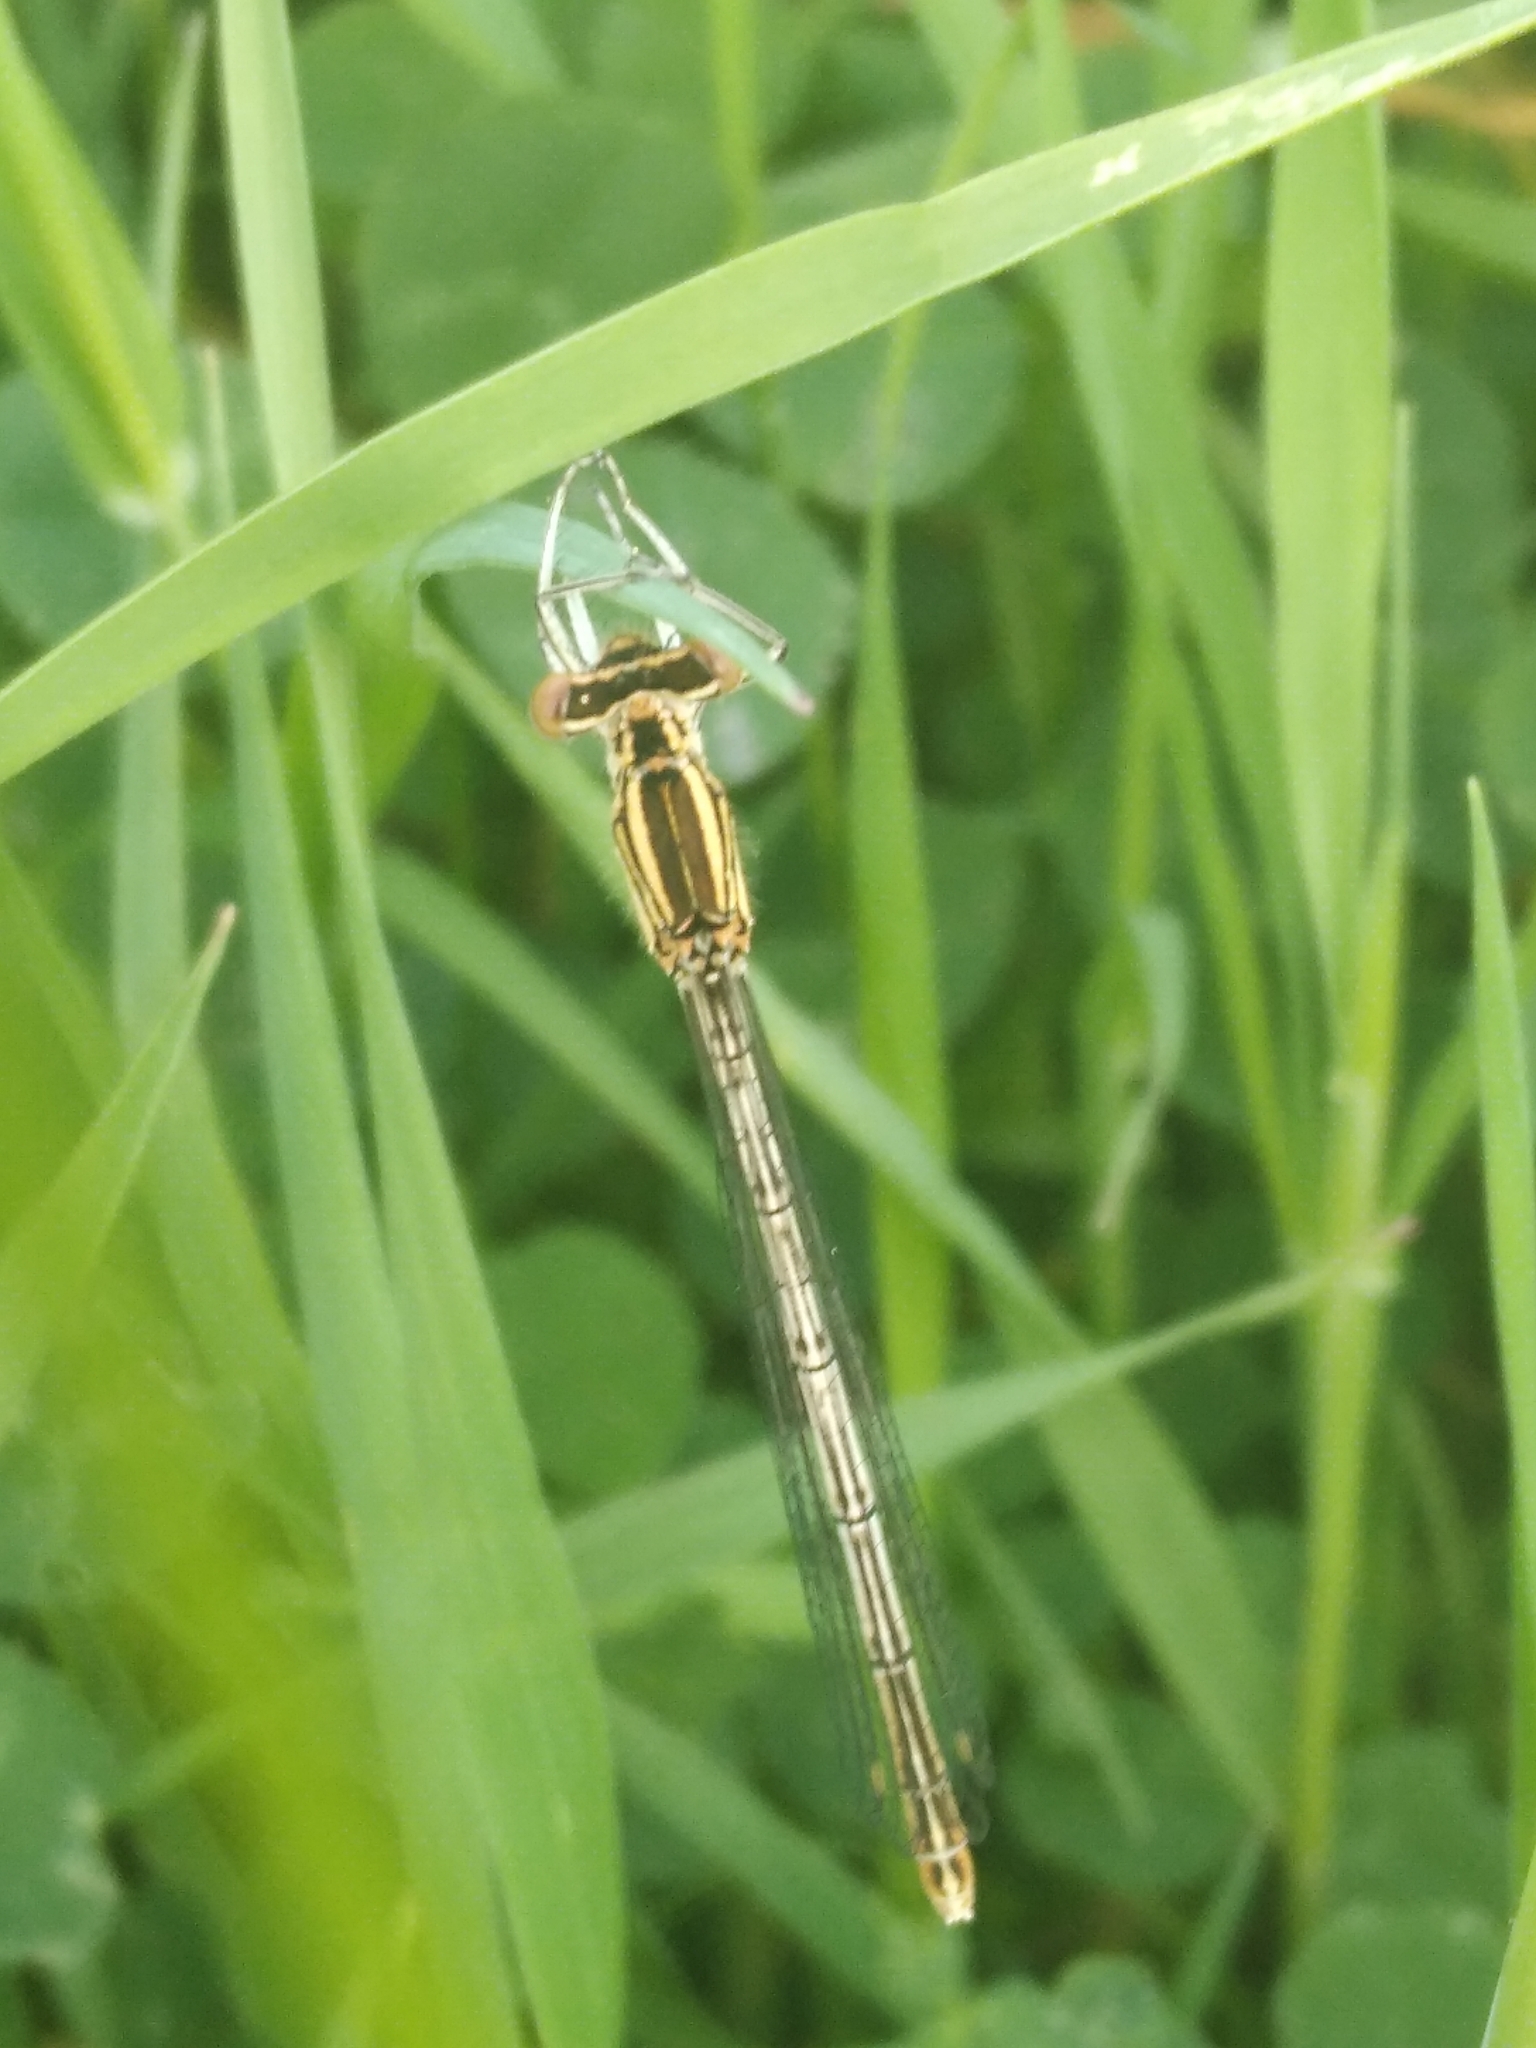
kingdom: Animalia
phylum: Arthropoda
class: Insecta
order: Odonata
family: Platycnemididae
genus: Platycnemis
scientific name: Platycnemis pennipes
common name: White-legged damselfly
